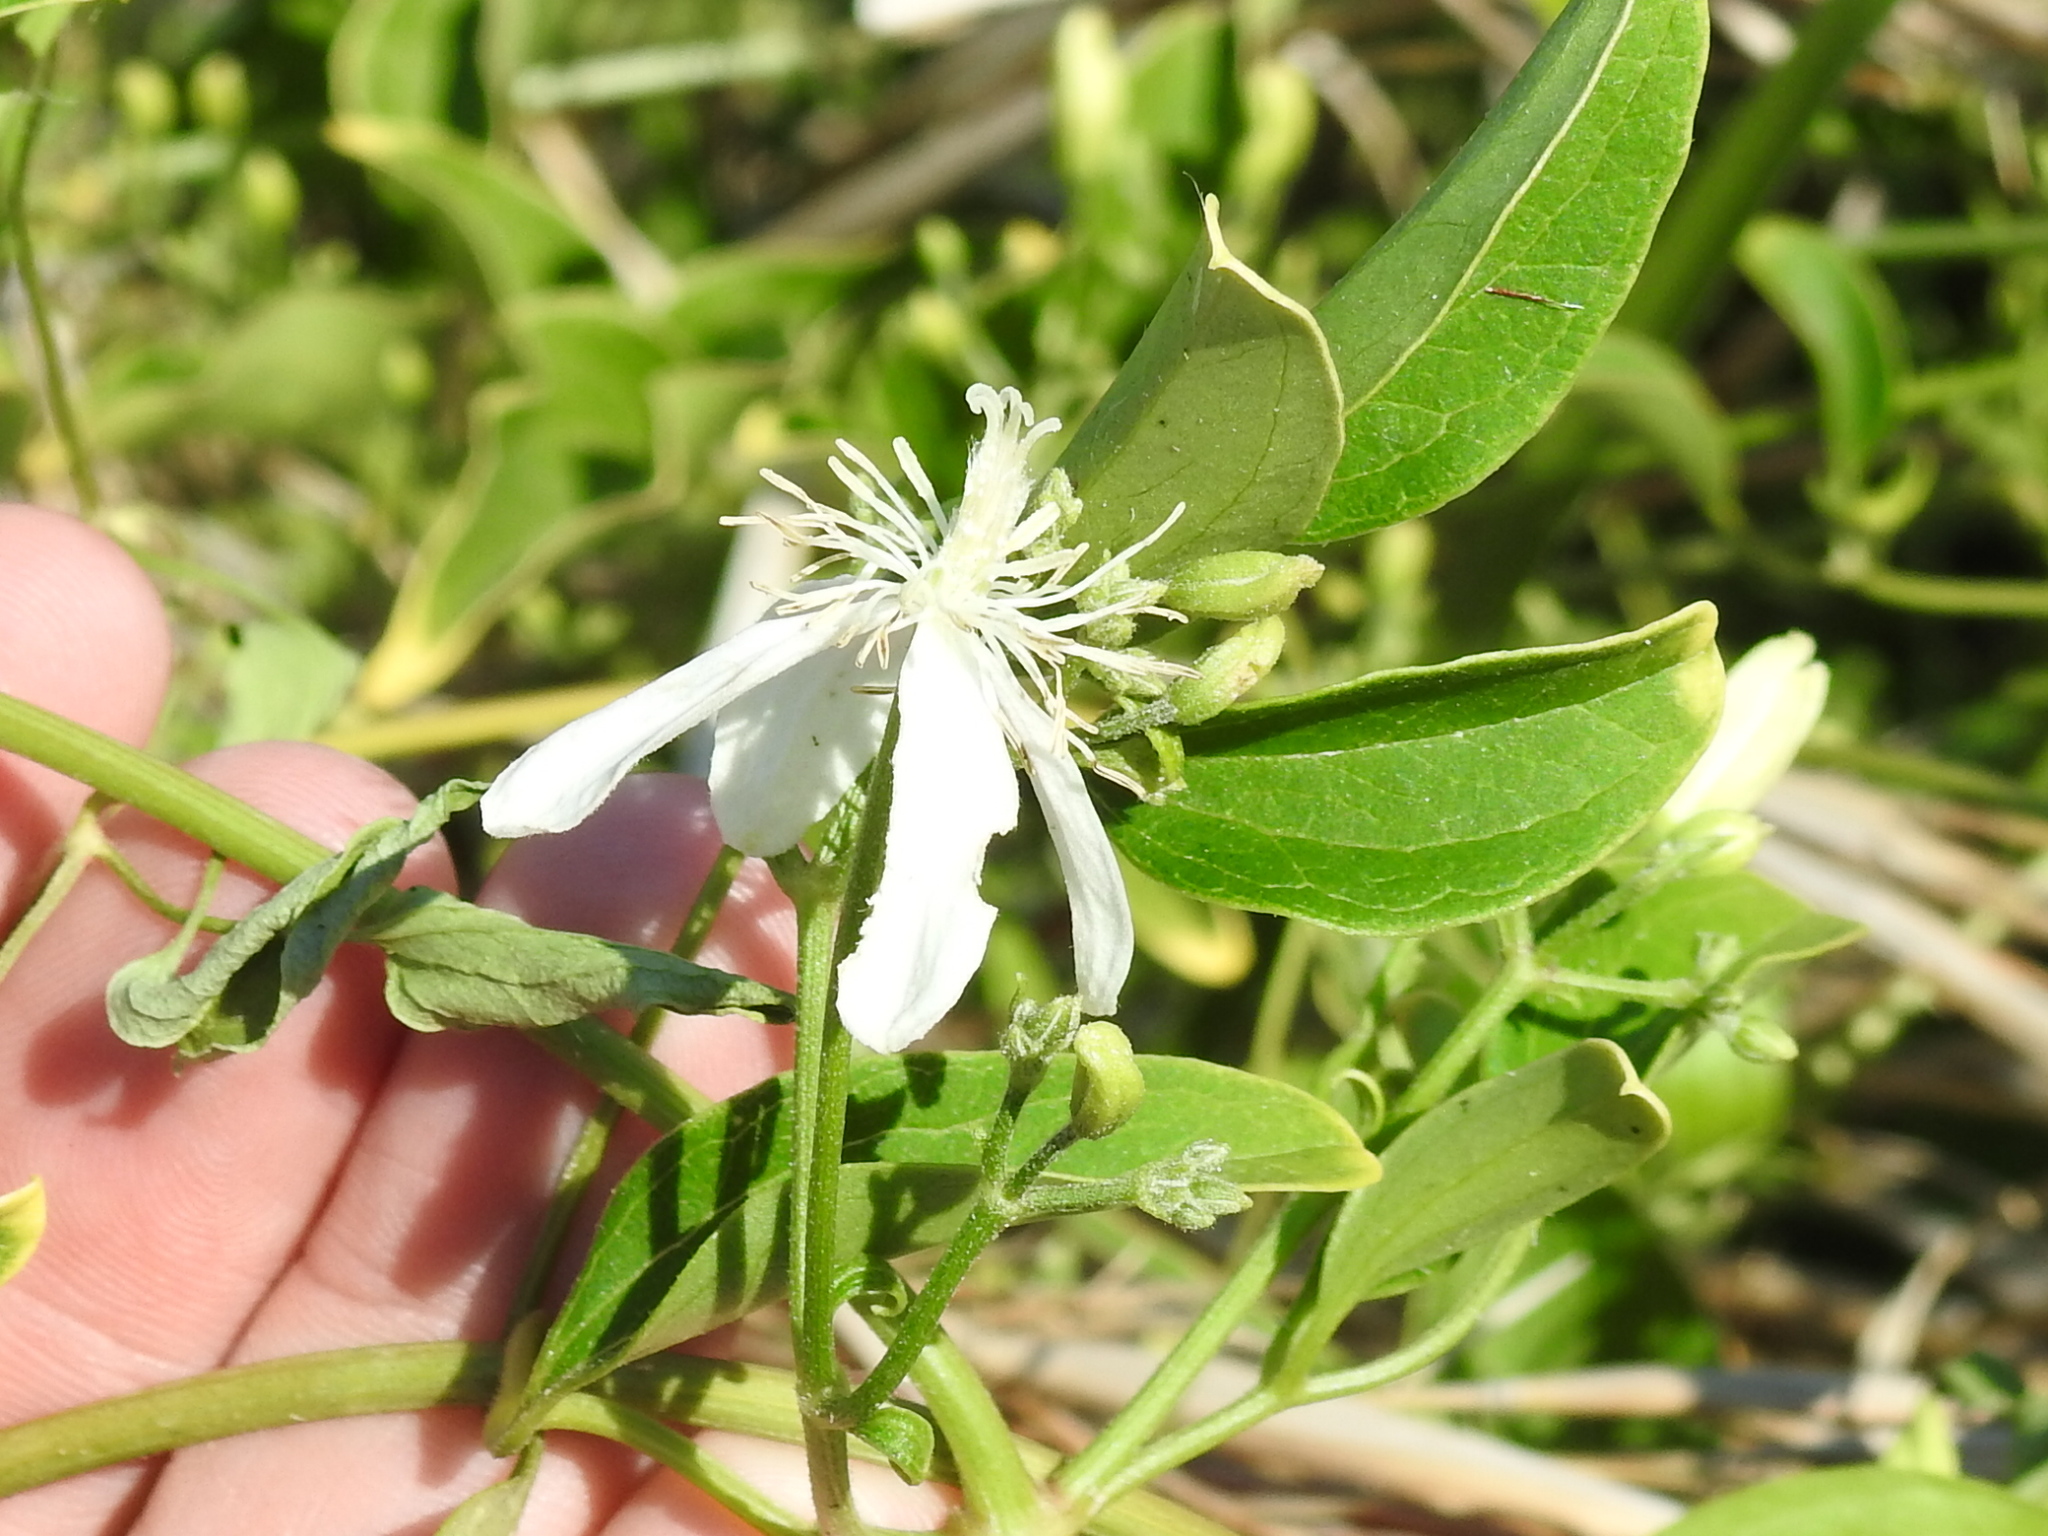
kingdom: Plantae
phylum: Tracheophyta
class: Magnoliopsida
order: Ranunculales
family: Ranunculaceae
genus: Clematis
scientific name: Clematis terniflora
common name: Sweet autumn clematis
